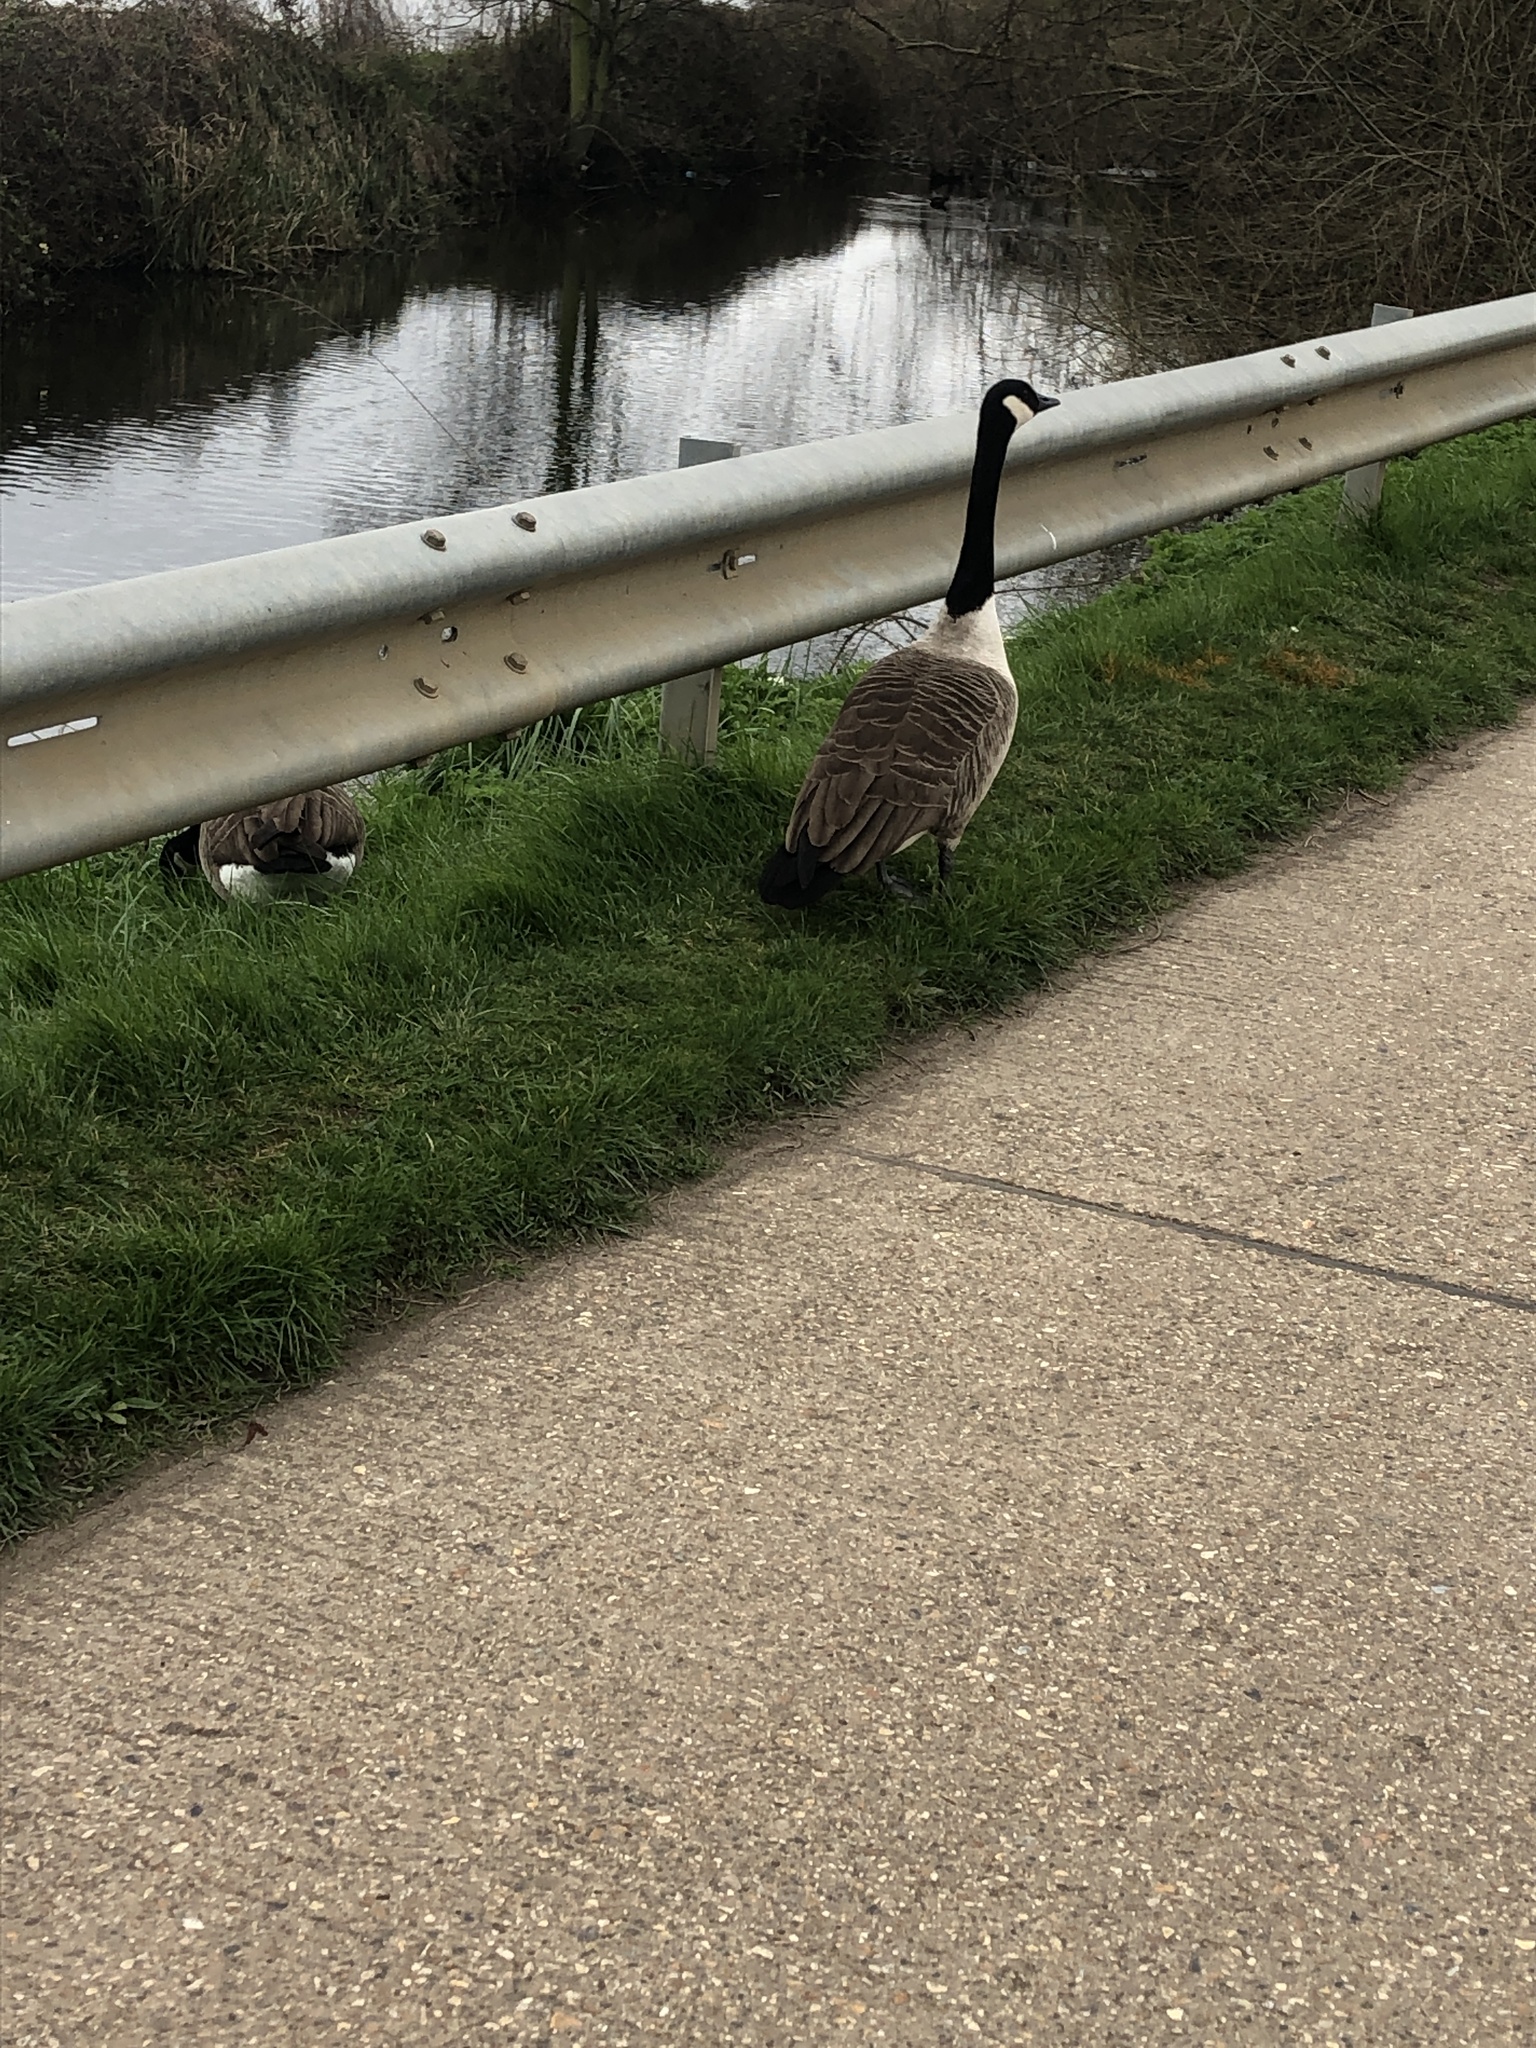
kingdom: Animalia
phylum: Chordata
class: Aves
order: Anseriformes
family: Anatidae
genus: Branta
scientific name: Branta canadensis
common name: Canada goose
